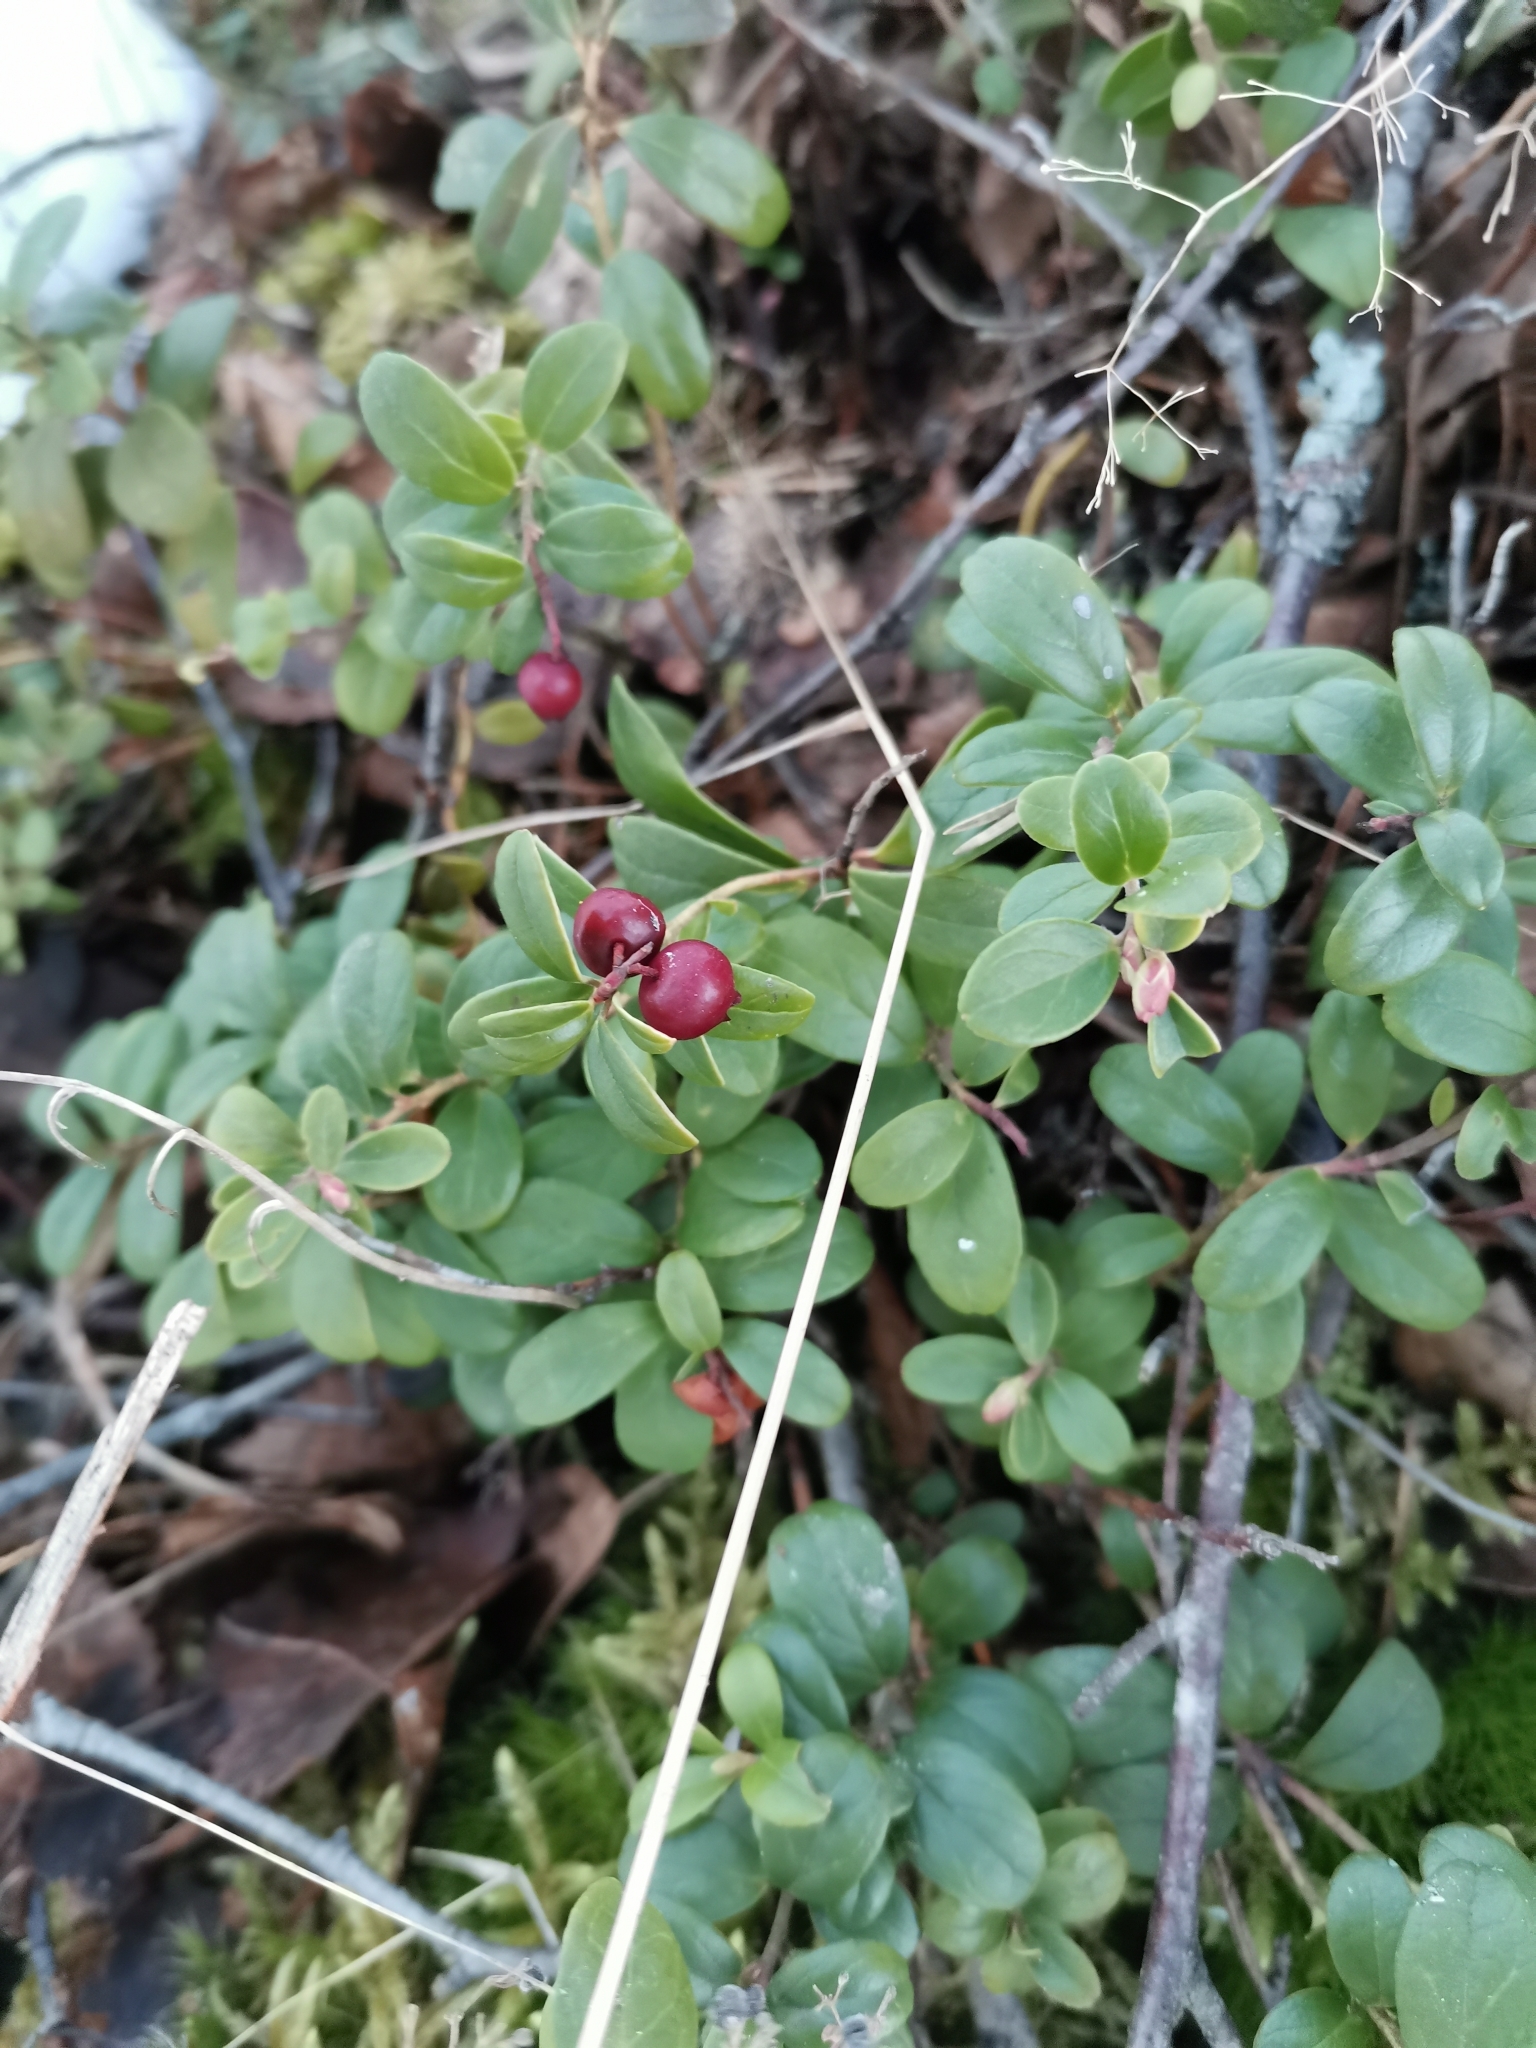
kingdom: Plantae
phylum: Tracheophyta
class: Magnoliopsida
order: Ericales
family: Ericaceae
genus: Vaccinium
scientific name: Vaccinium vitis-idaea
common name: Cowberry
